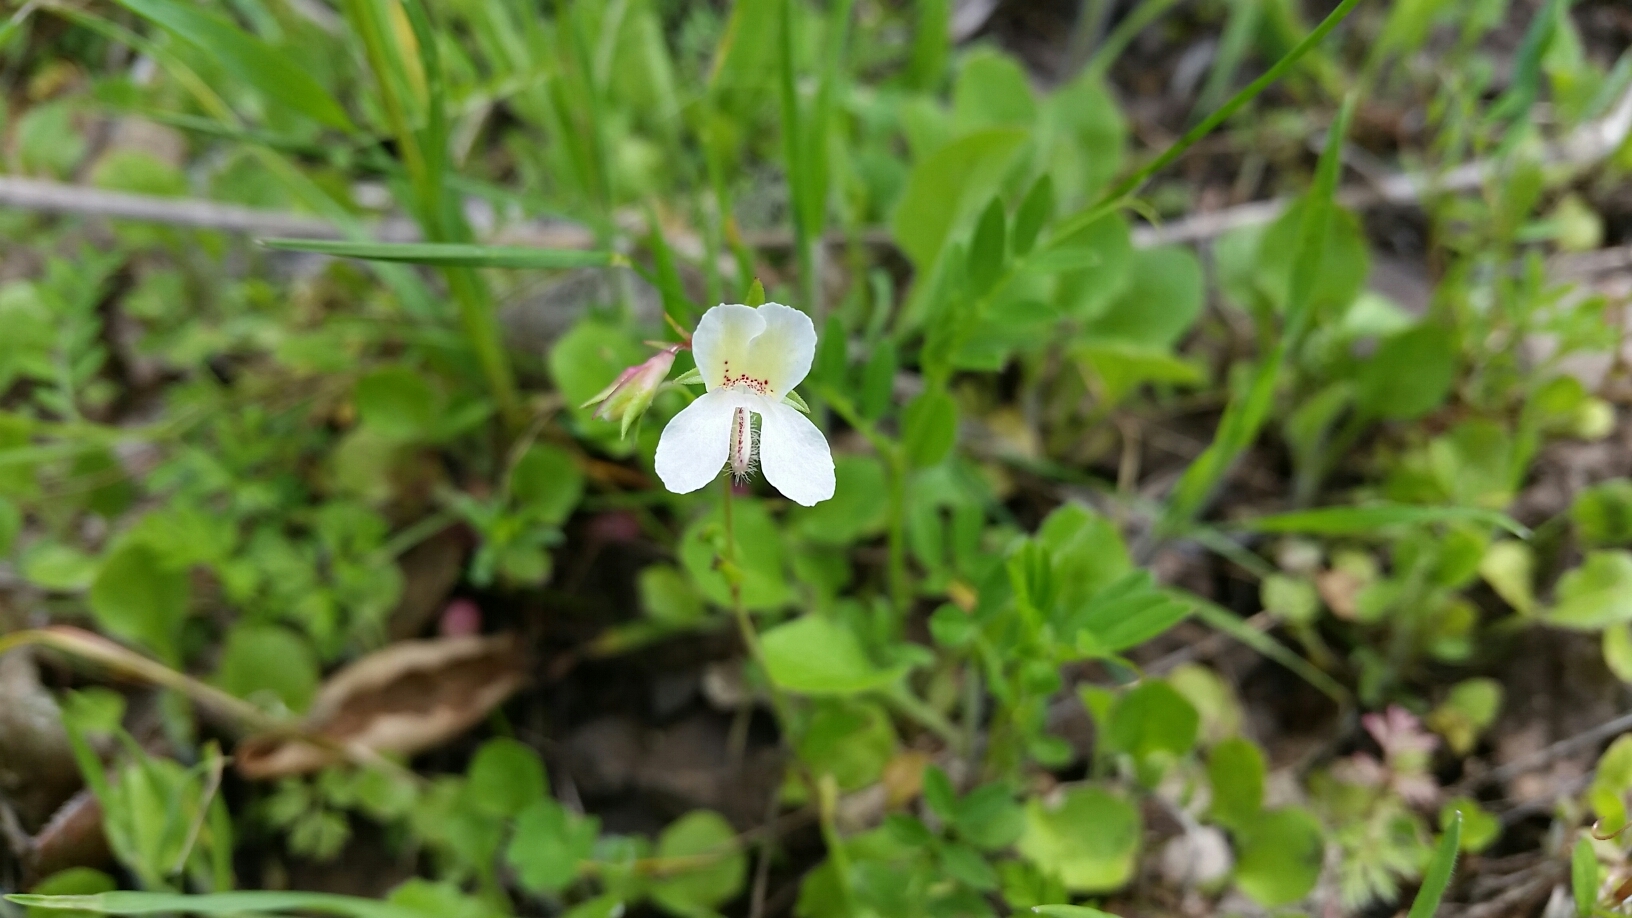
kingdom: Plantae
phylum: Tracheophyta
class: Magnoliopsida
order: Lamiales
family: Plantaginaceae
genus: Collinsia
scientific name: Collinsia sparsiflora
